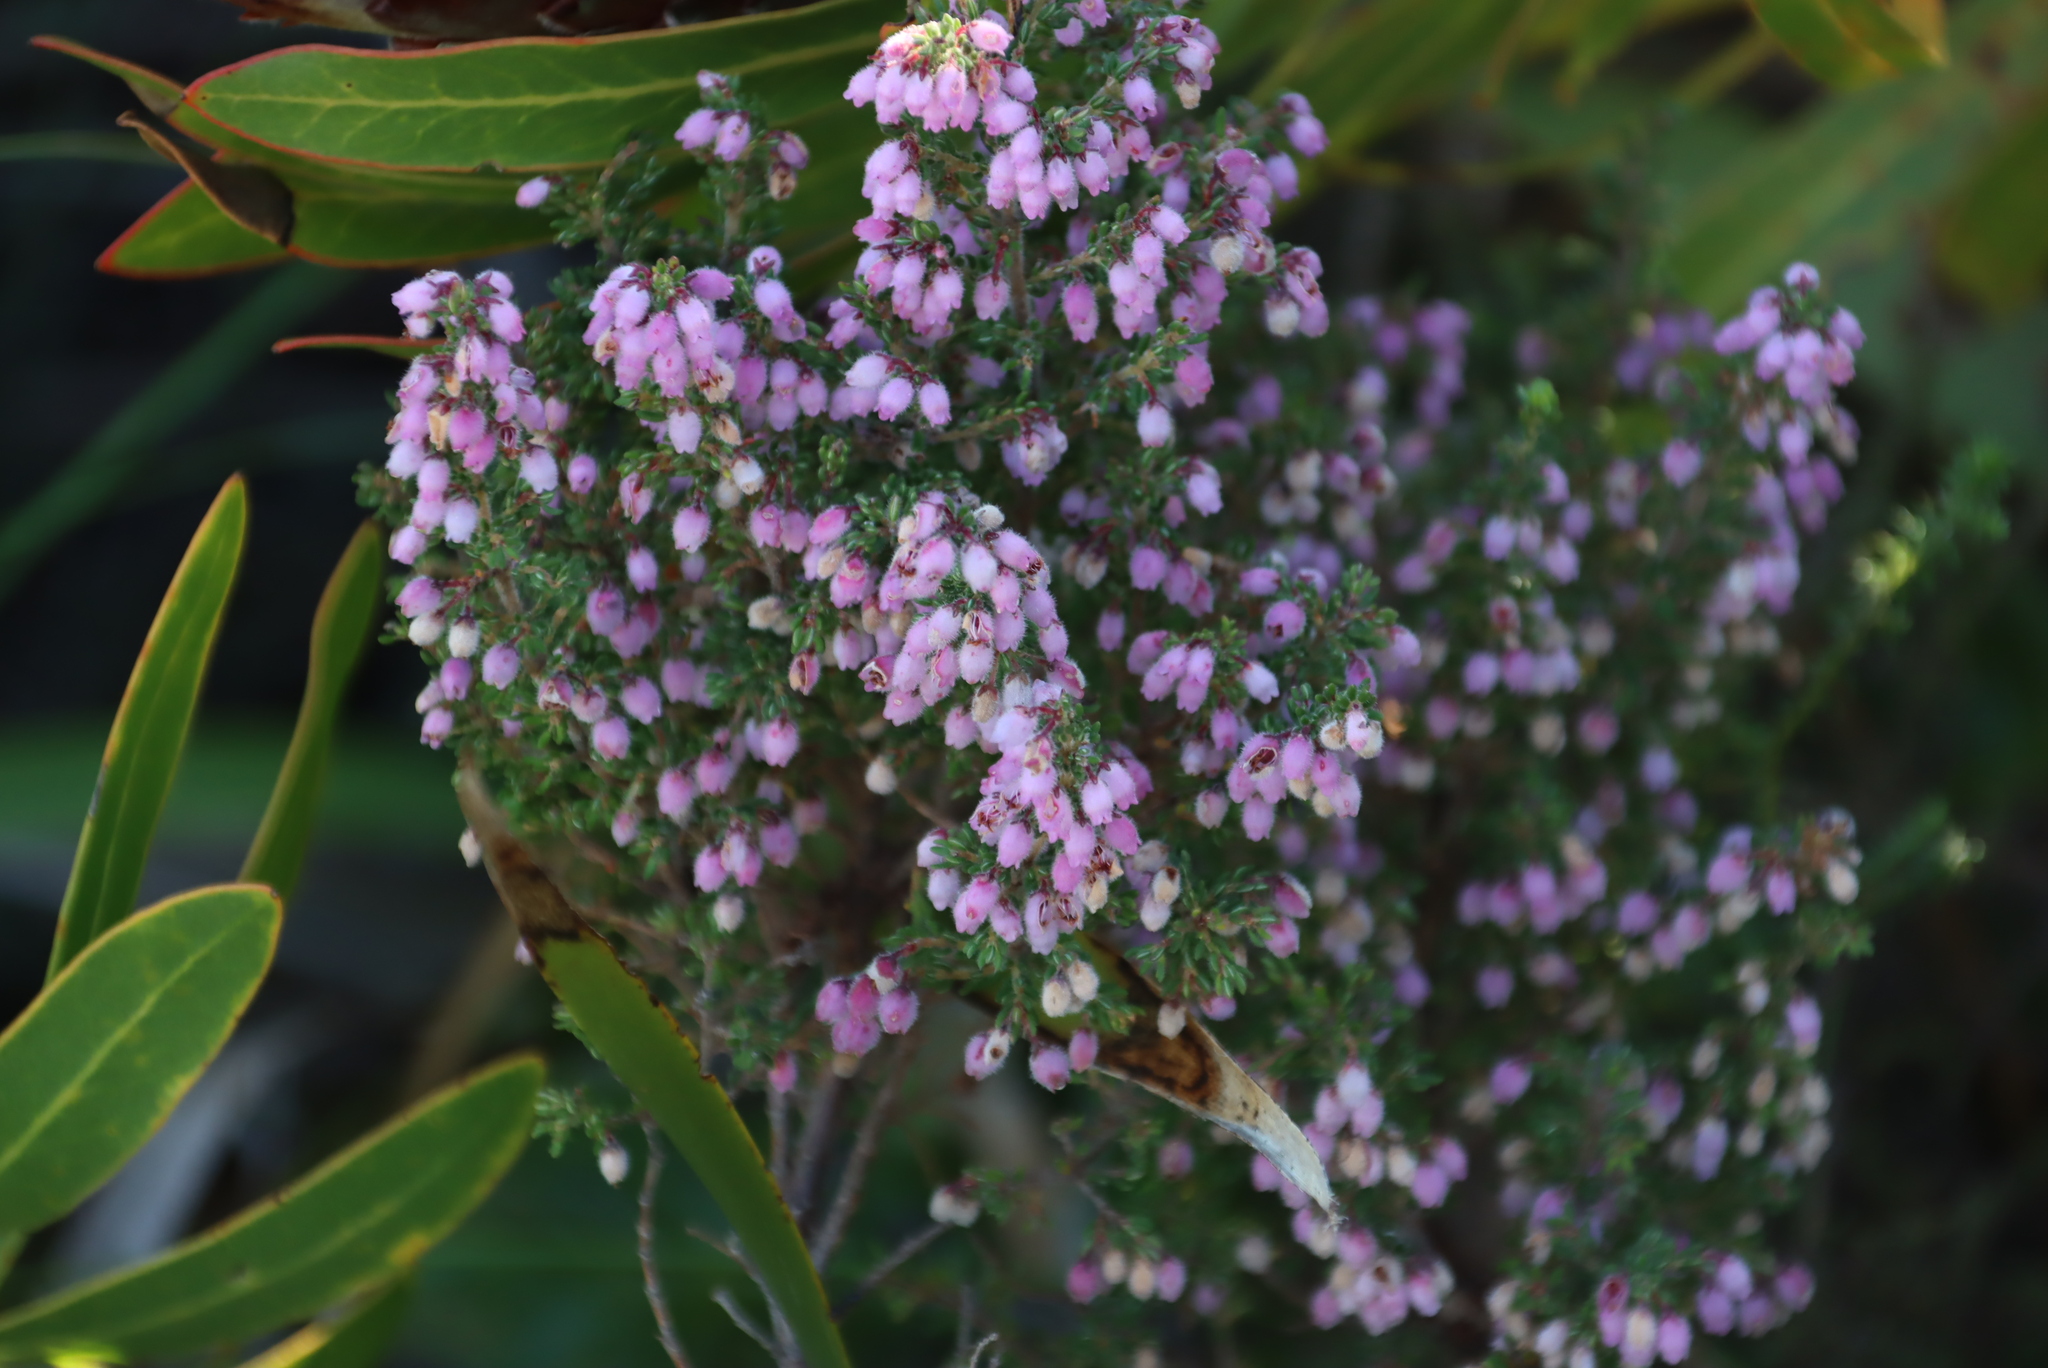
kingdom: Plantae
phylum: Tracheophyta
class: Magnoliopsida
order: Ericales
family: Ericaceae
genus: Erica
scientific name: Erica hirtiflora
